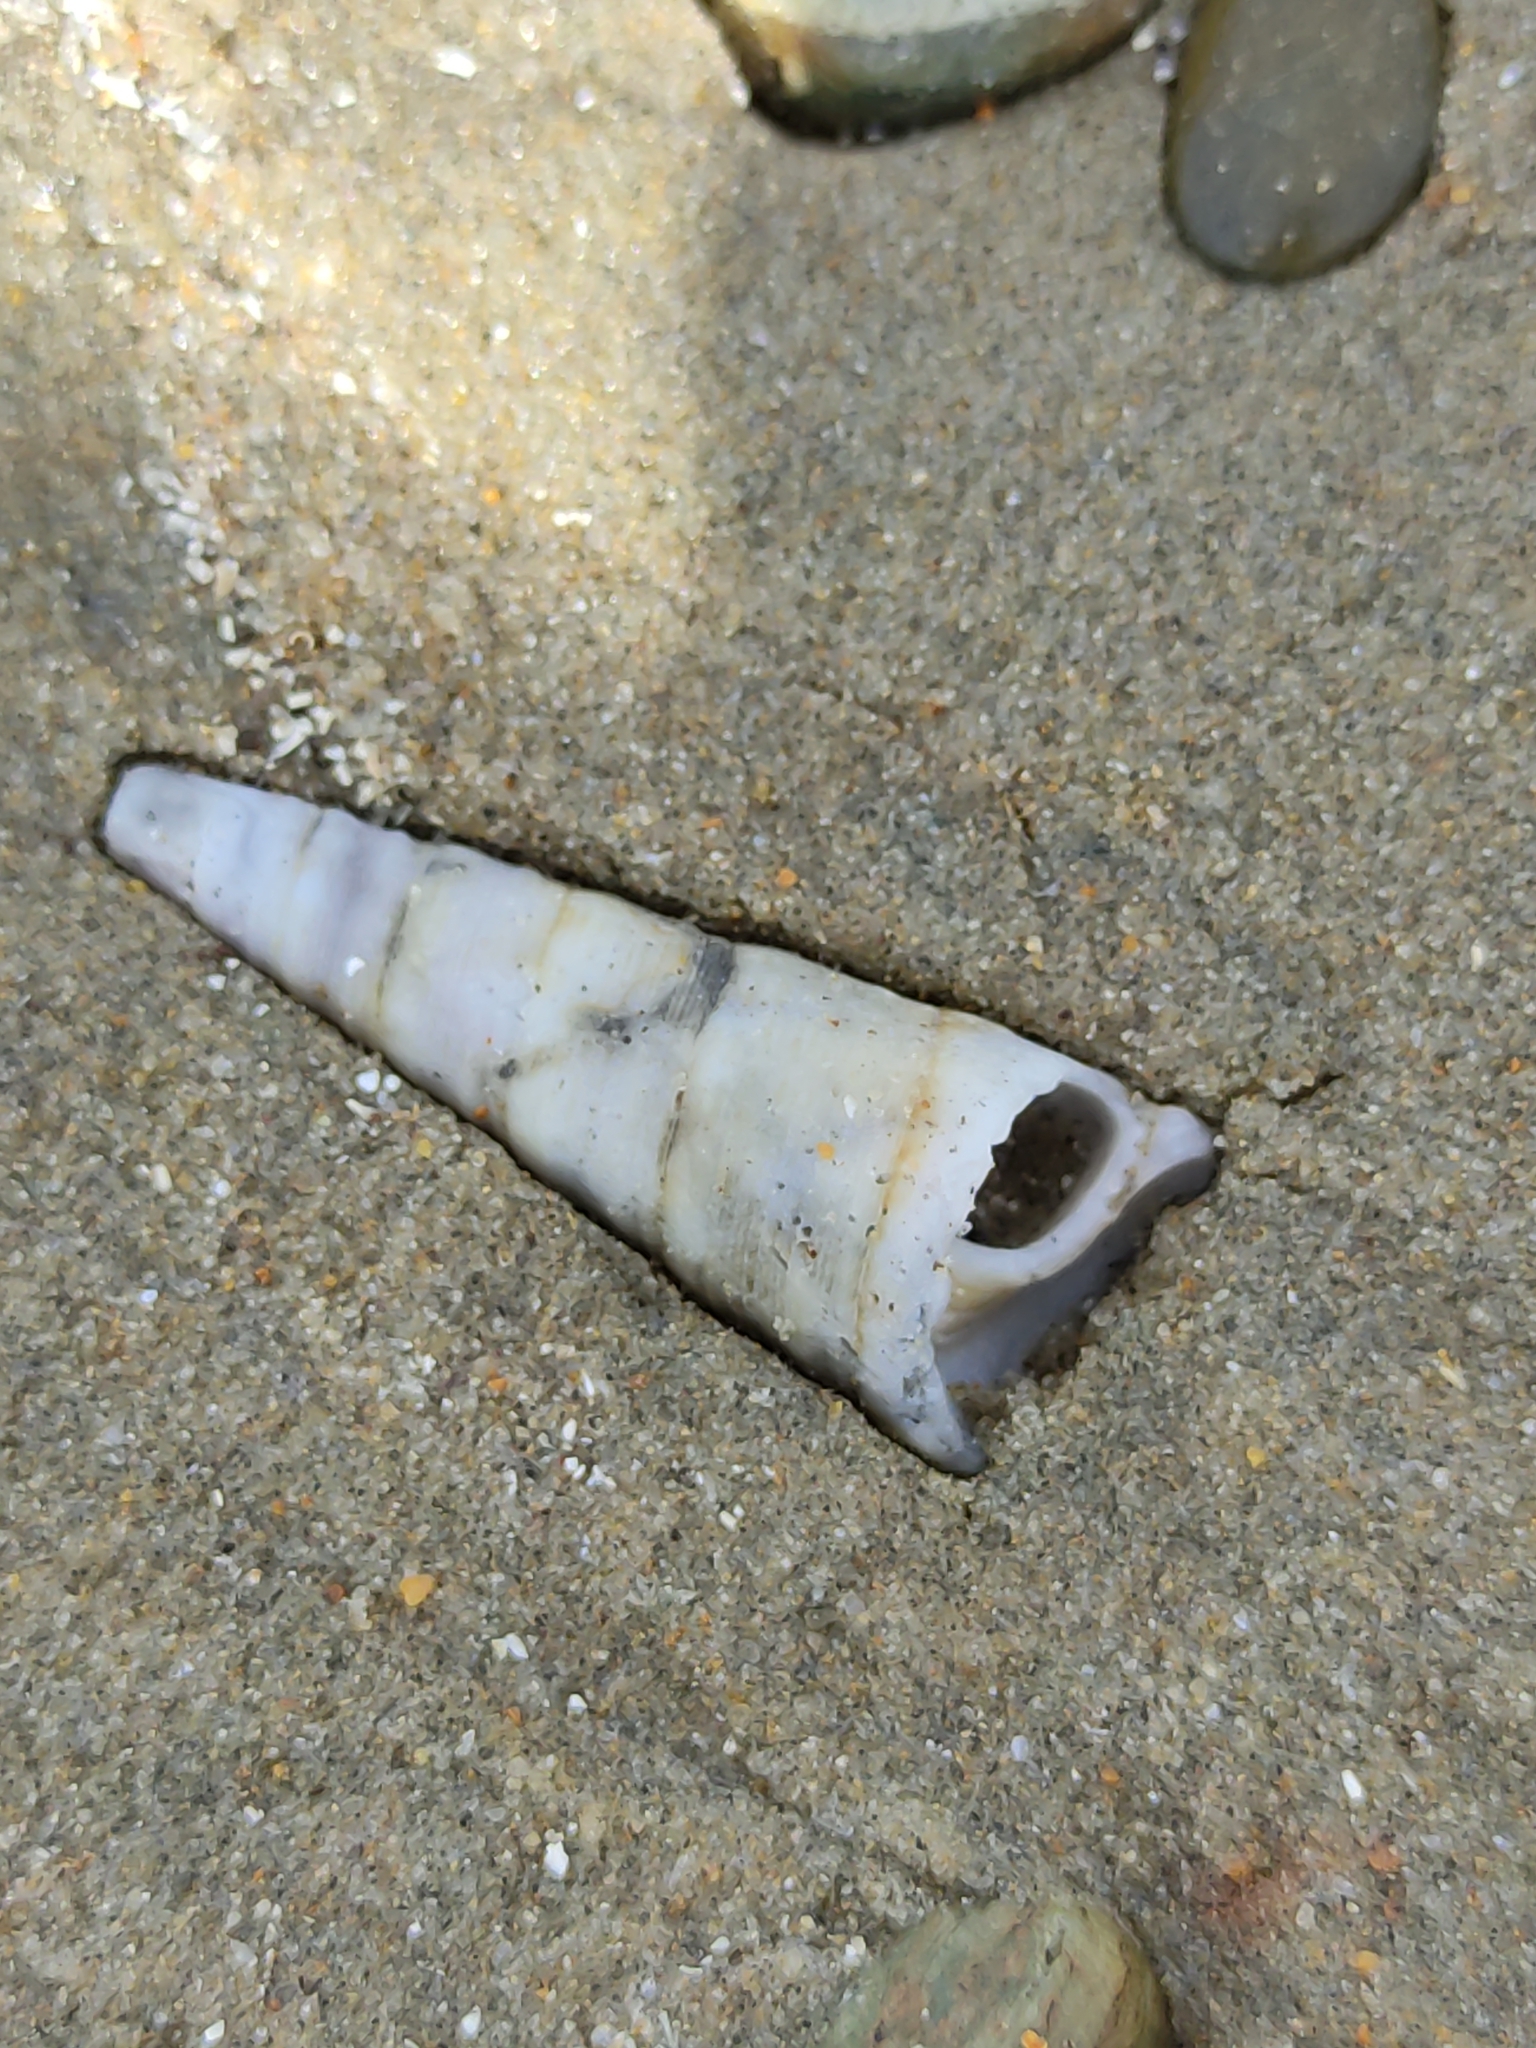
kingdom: Animalia
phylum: Mollusca
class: Gastropoda
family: Turritellidae
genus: Maoricolpus
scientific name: Maoricolpus roseus
